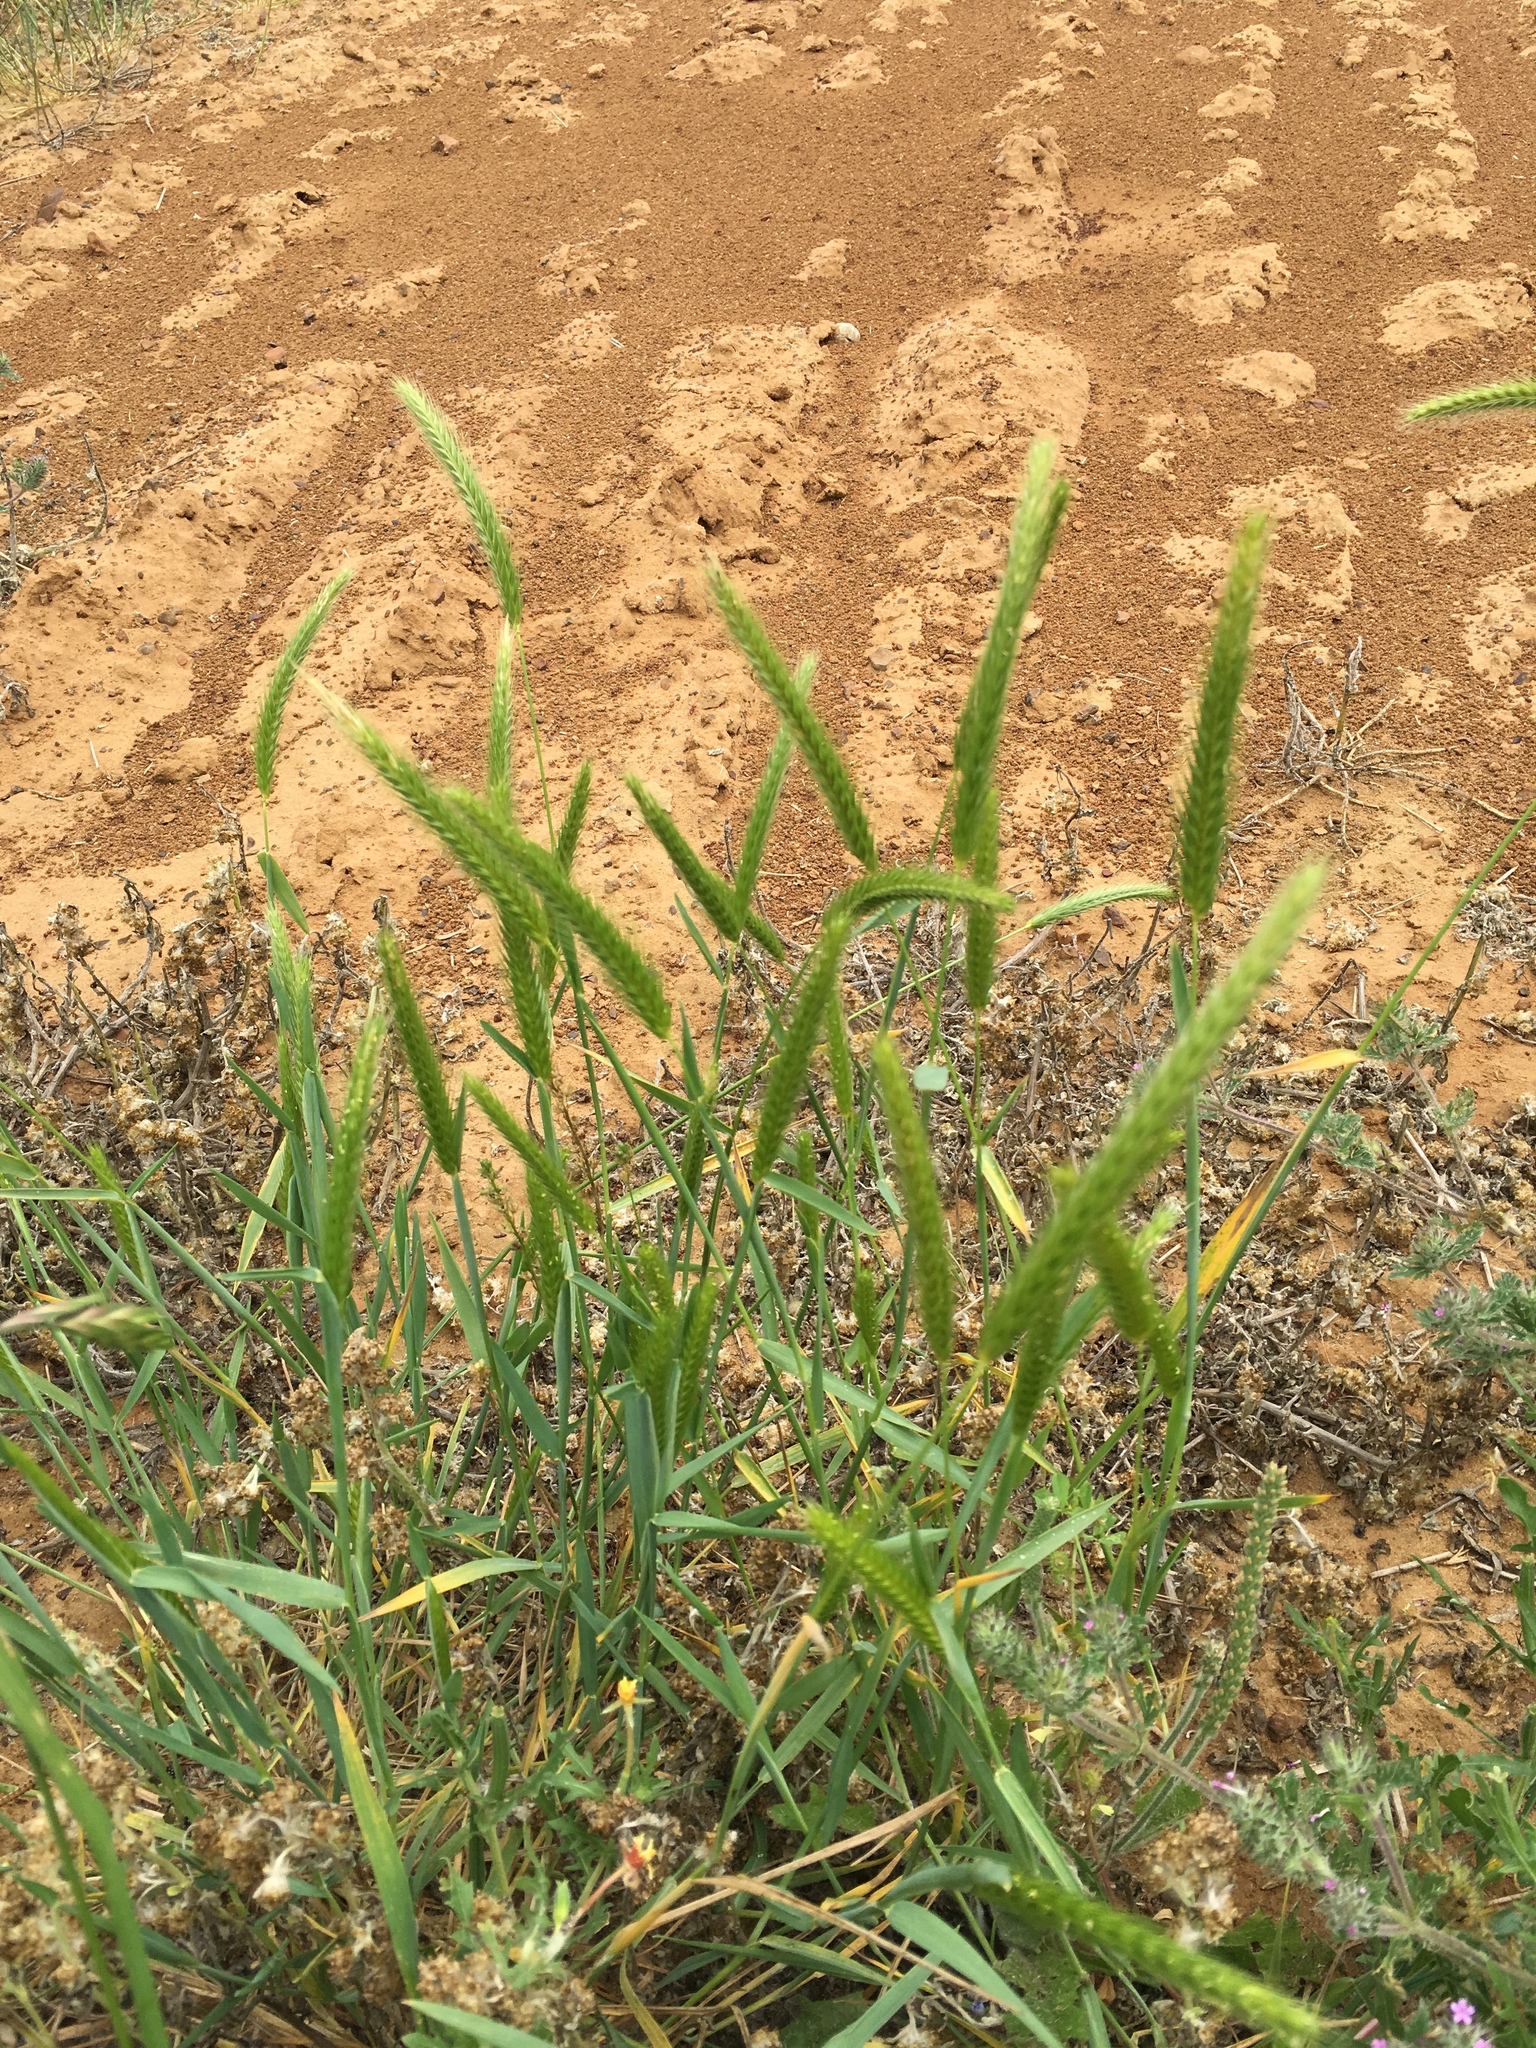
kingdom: Plantae
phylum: Tracheophyta
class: Liliopsida
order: Poales
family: Poaceae
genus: Hordeum
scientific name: Hordeum pusillum
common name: Little barley
